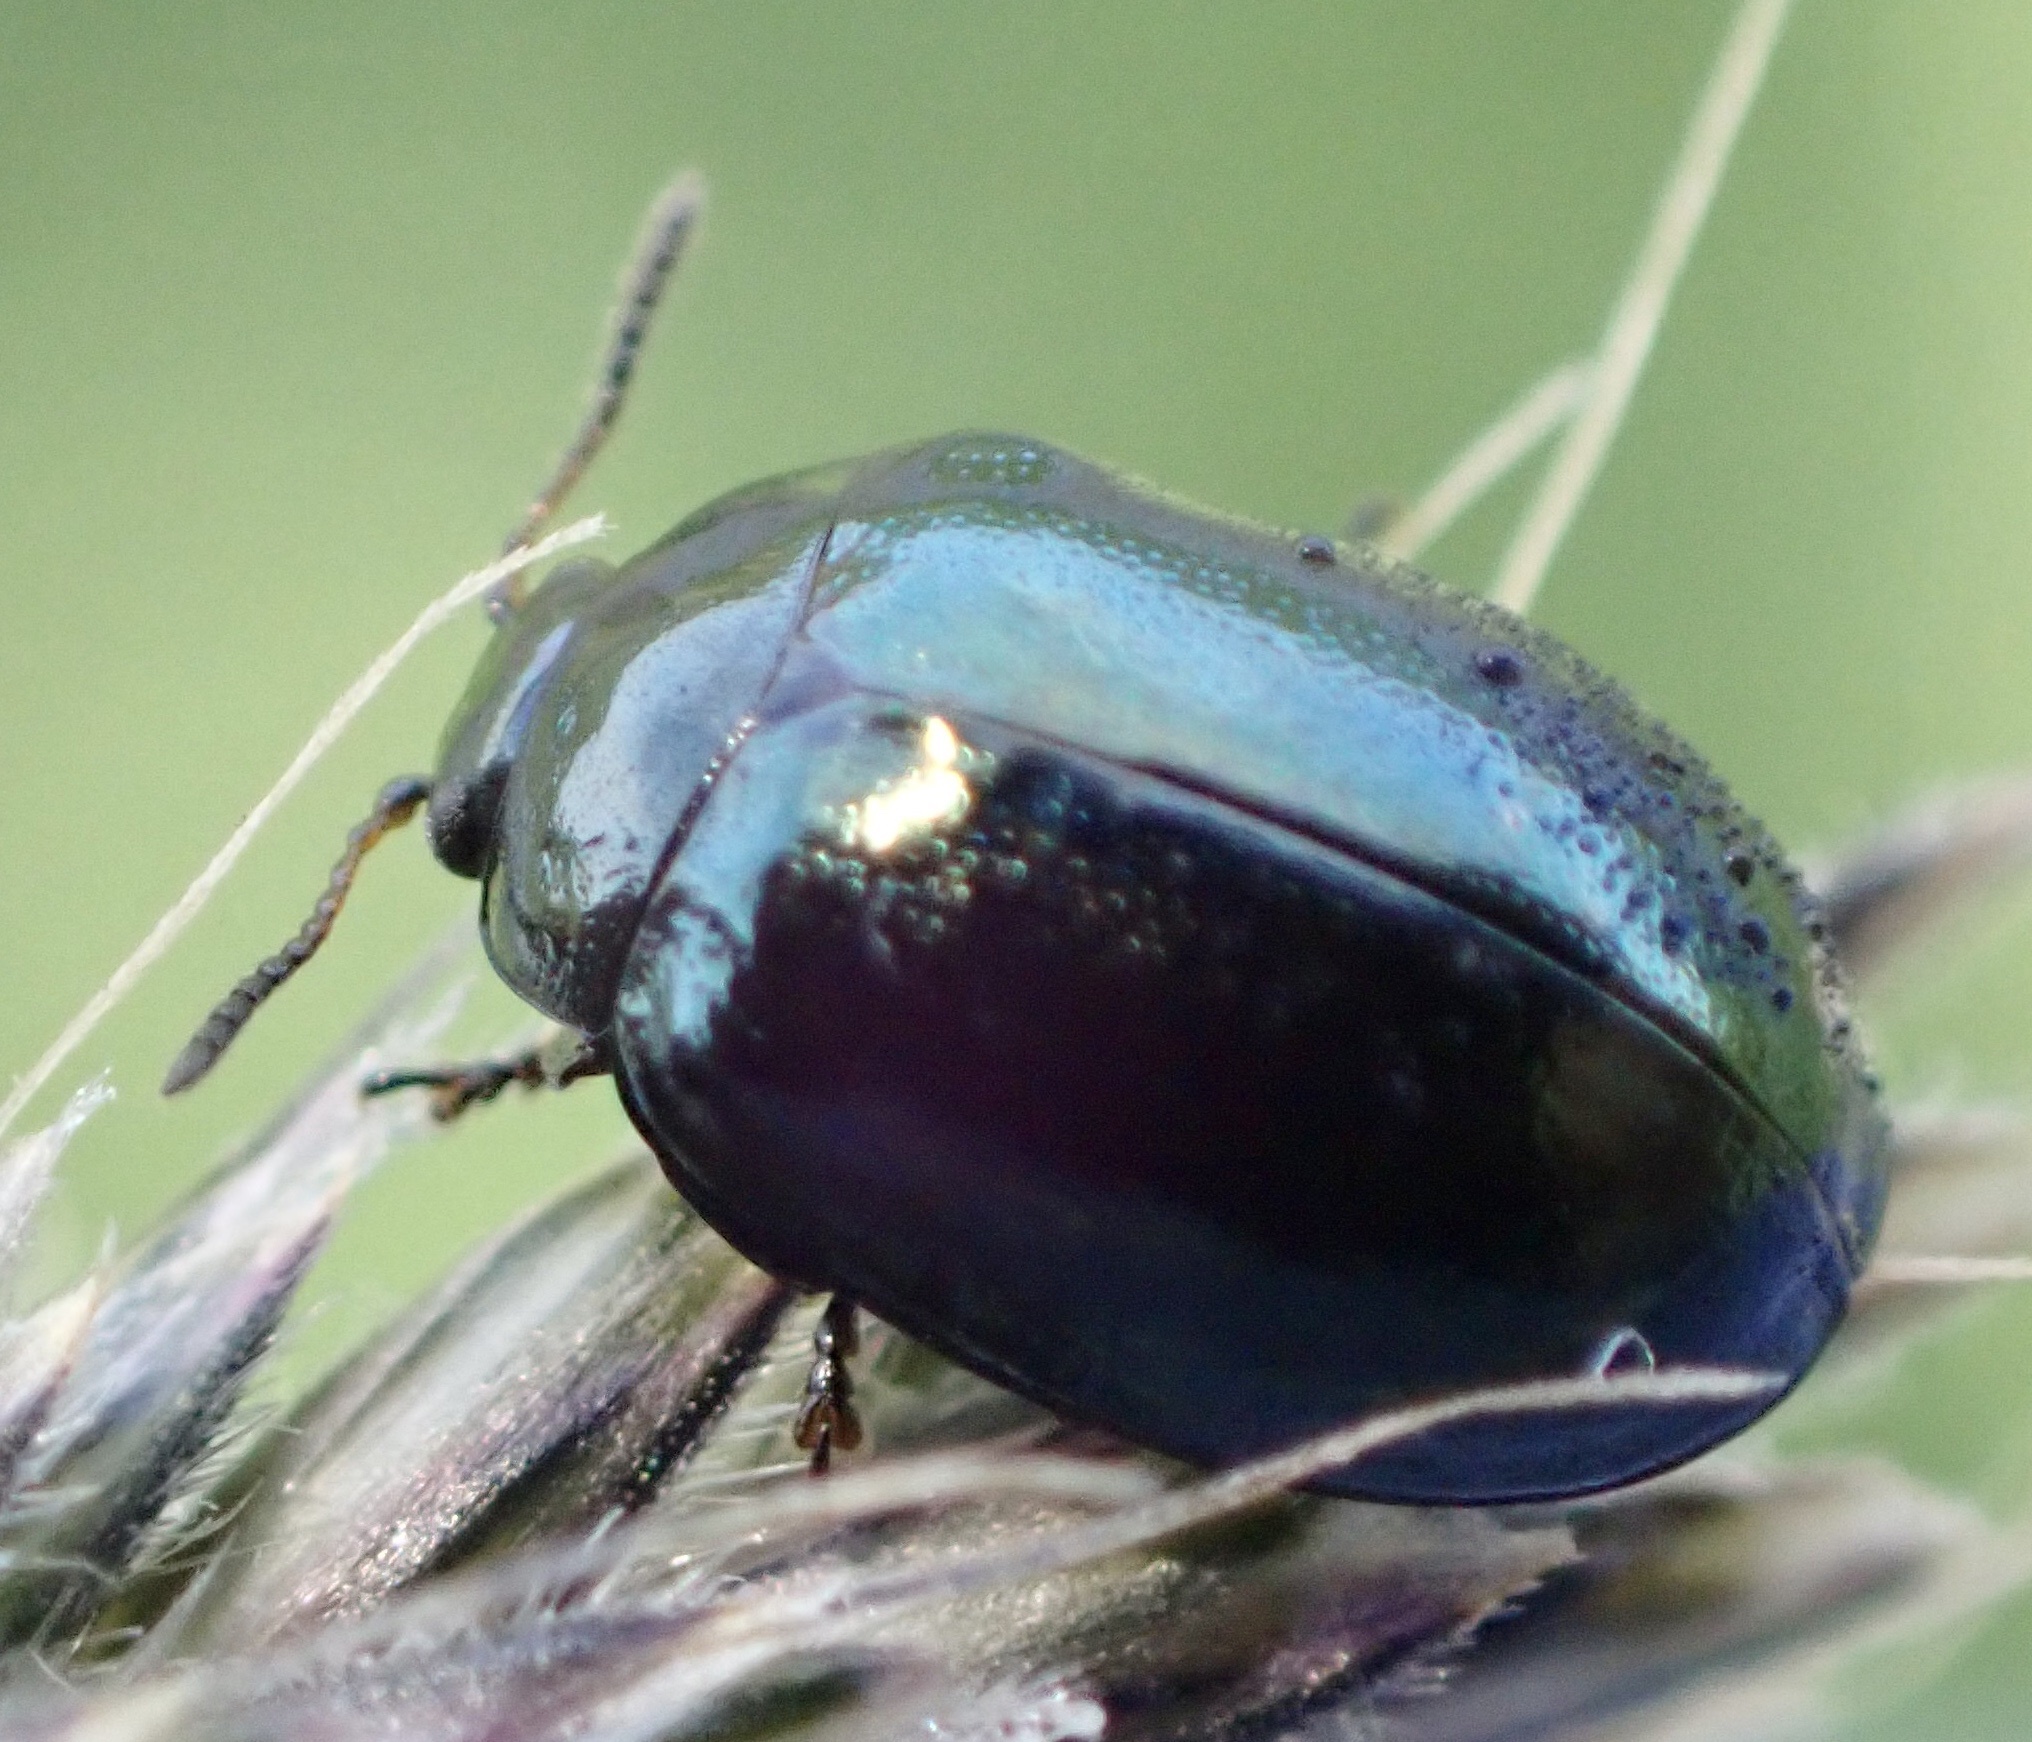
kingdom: Animalia
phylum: Arthropoda
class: Insecta
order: Coleoptera
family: Chrysomelidae
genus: Plagiodera
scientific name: Plagiodera versicolora
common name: Imported willow leaf beetle
